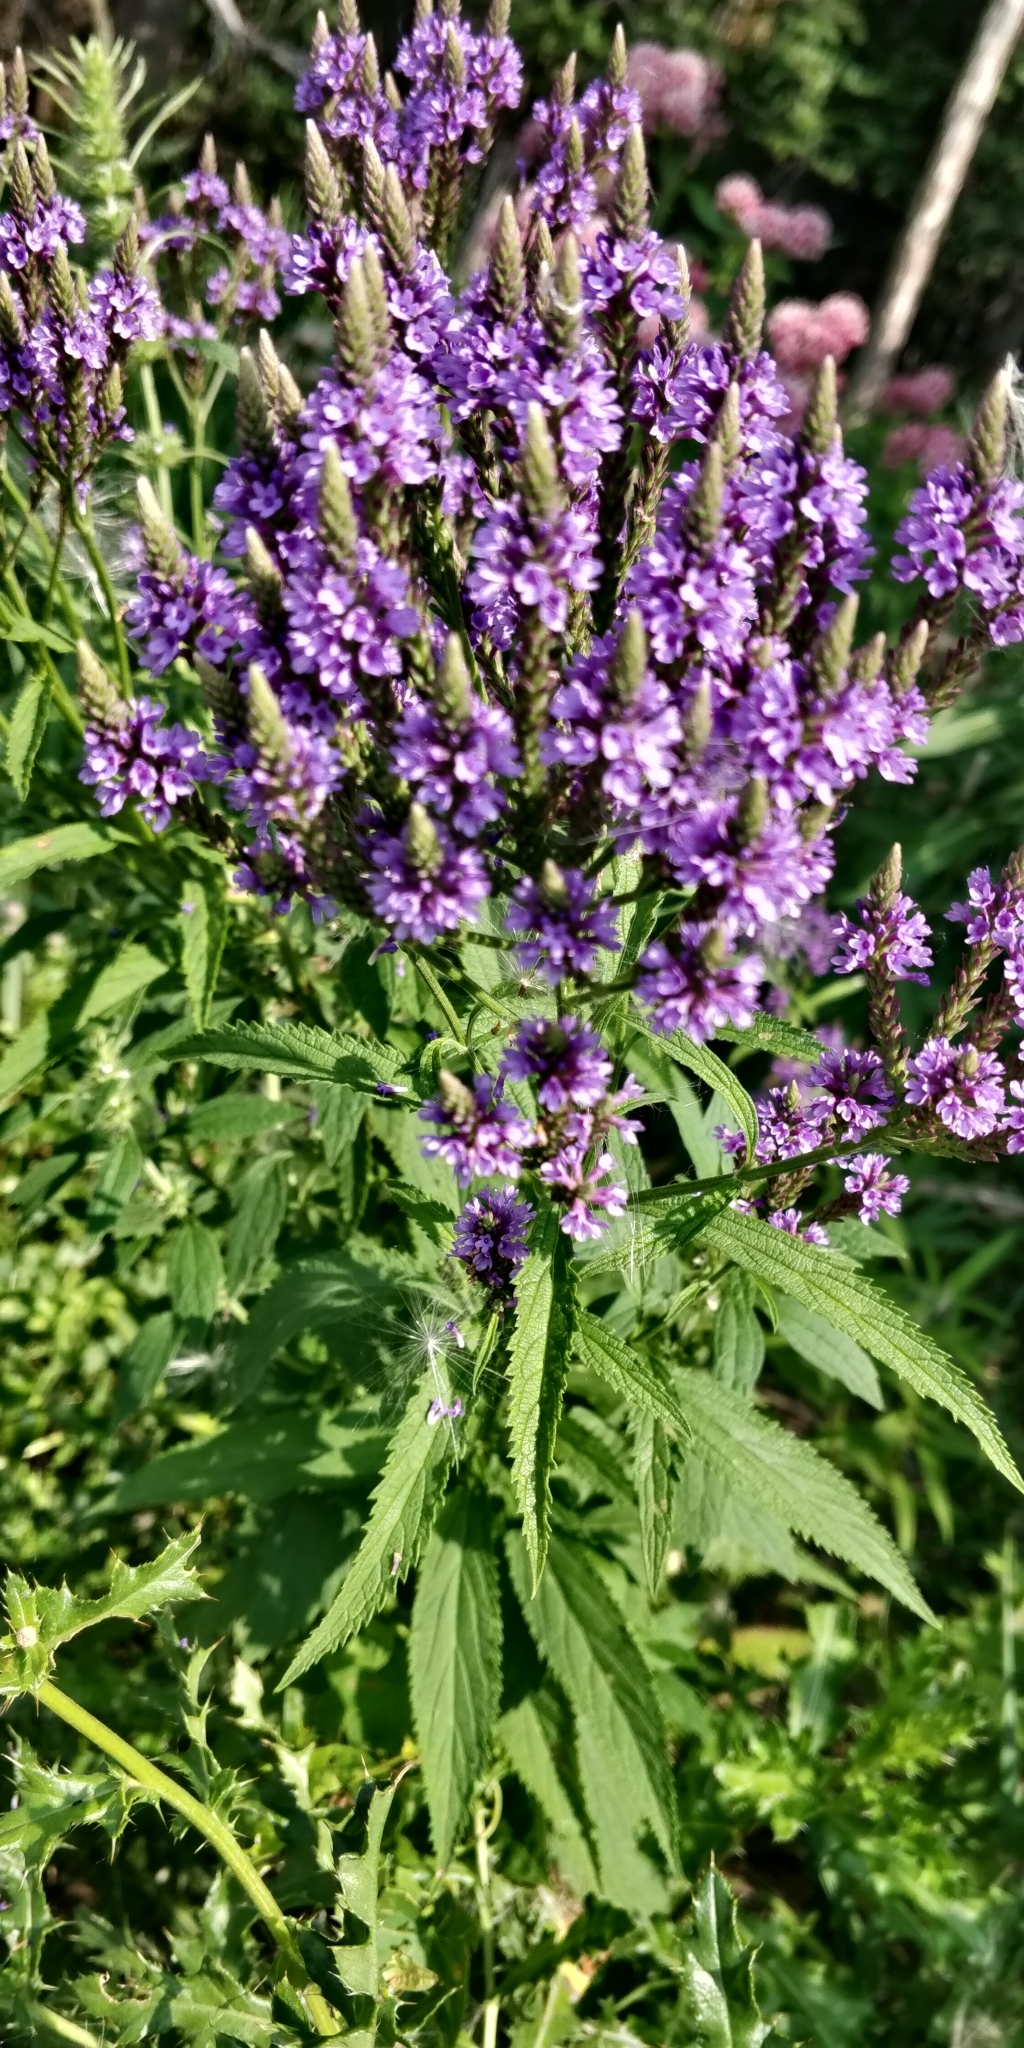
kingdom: Plantae
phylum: Tracheophyta
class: Magnoliopsida
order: Lamiales
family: Verbenaceae
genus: Verbena
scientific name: Verbena hastata
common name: American blue vervain
